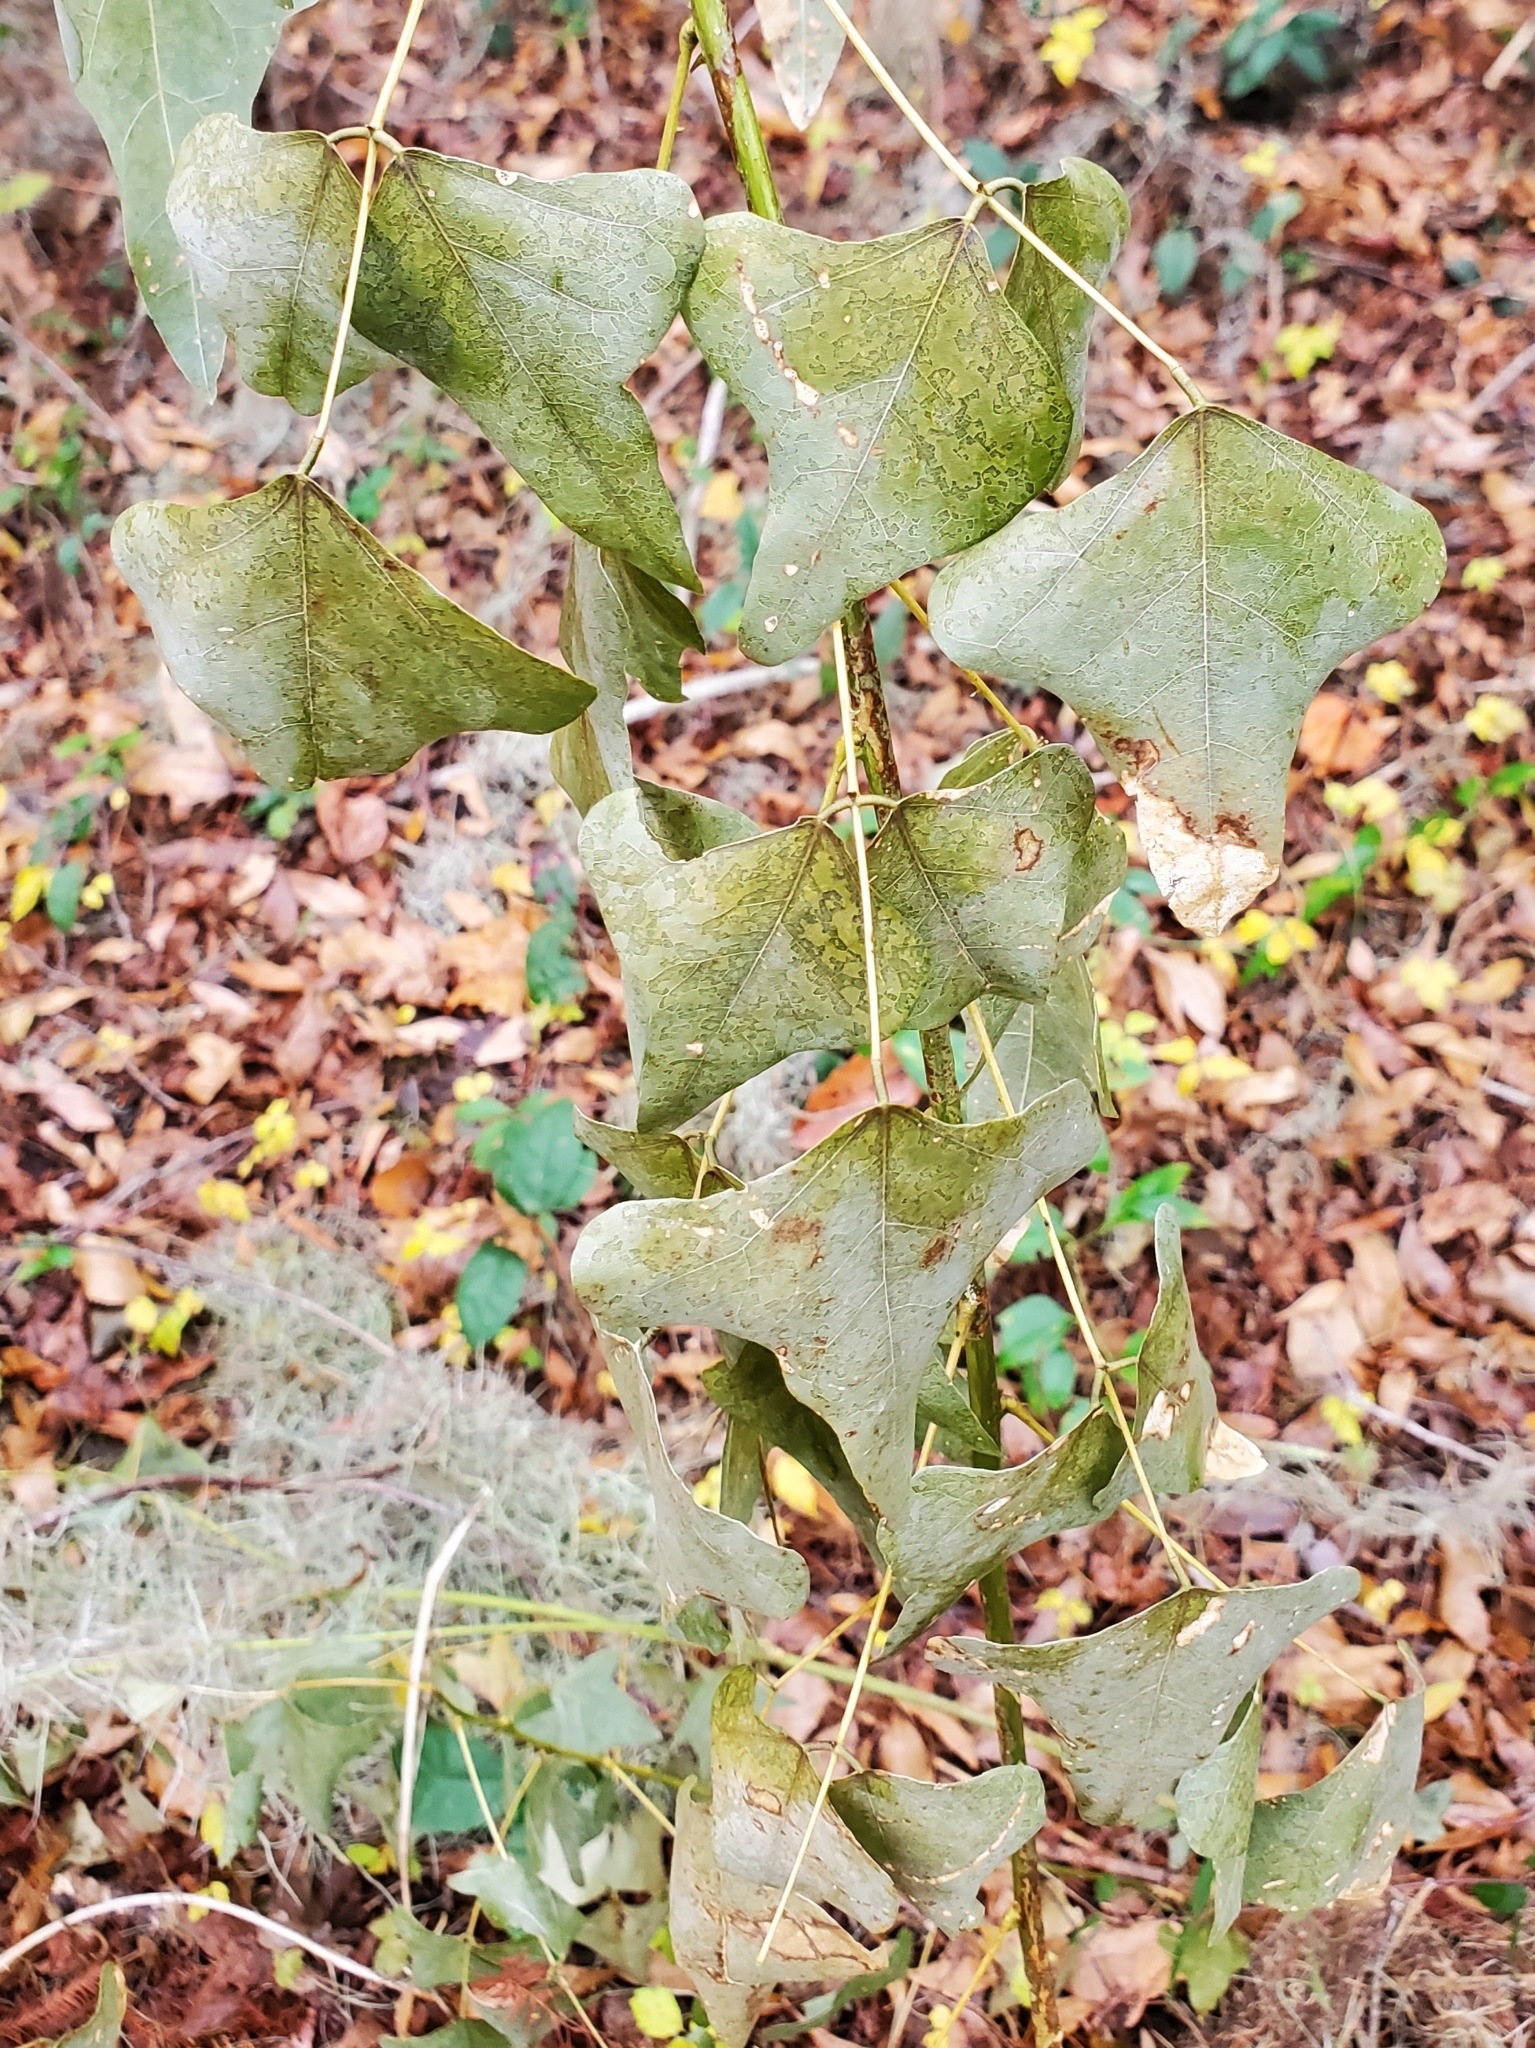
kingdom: Plantae
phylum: Tracheophyta
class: Magnoliopsida
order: Fabales
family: Fabaceae
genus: Erythrina
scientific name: Erythrina herbacea
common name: Coral-bean
